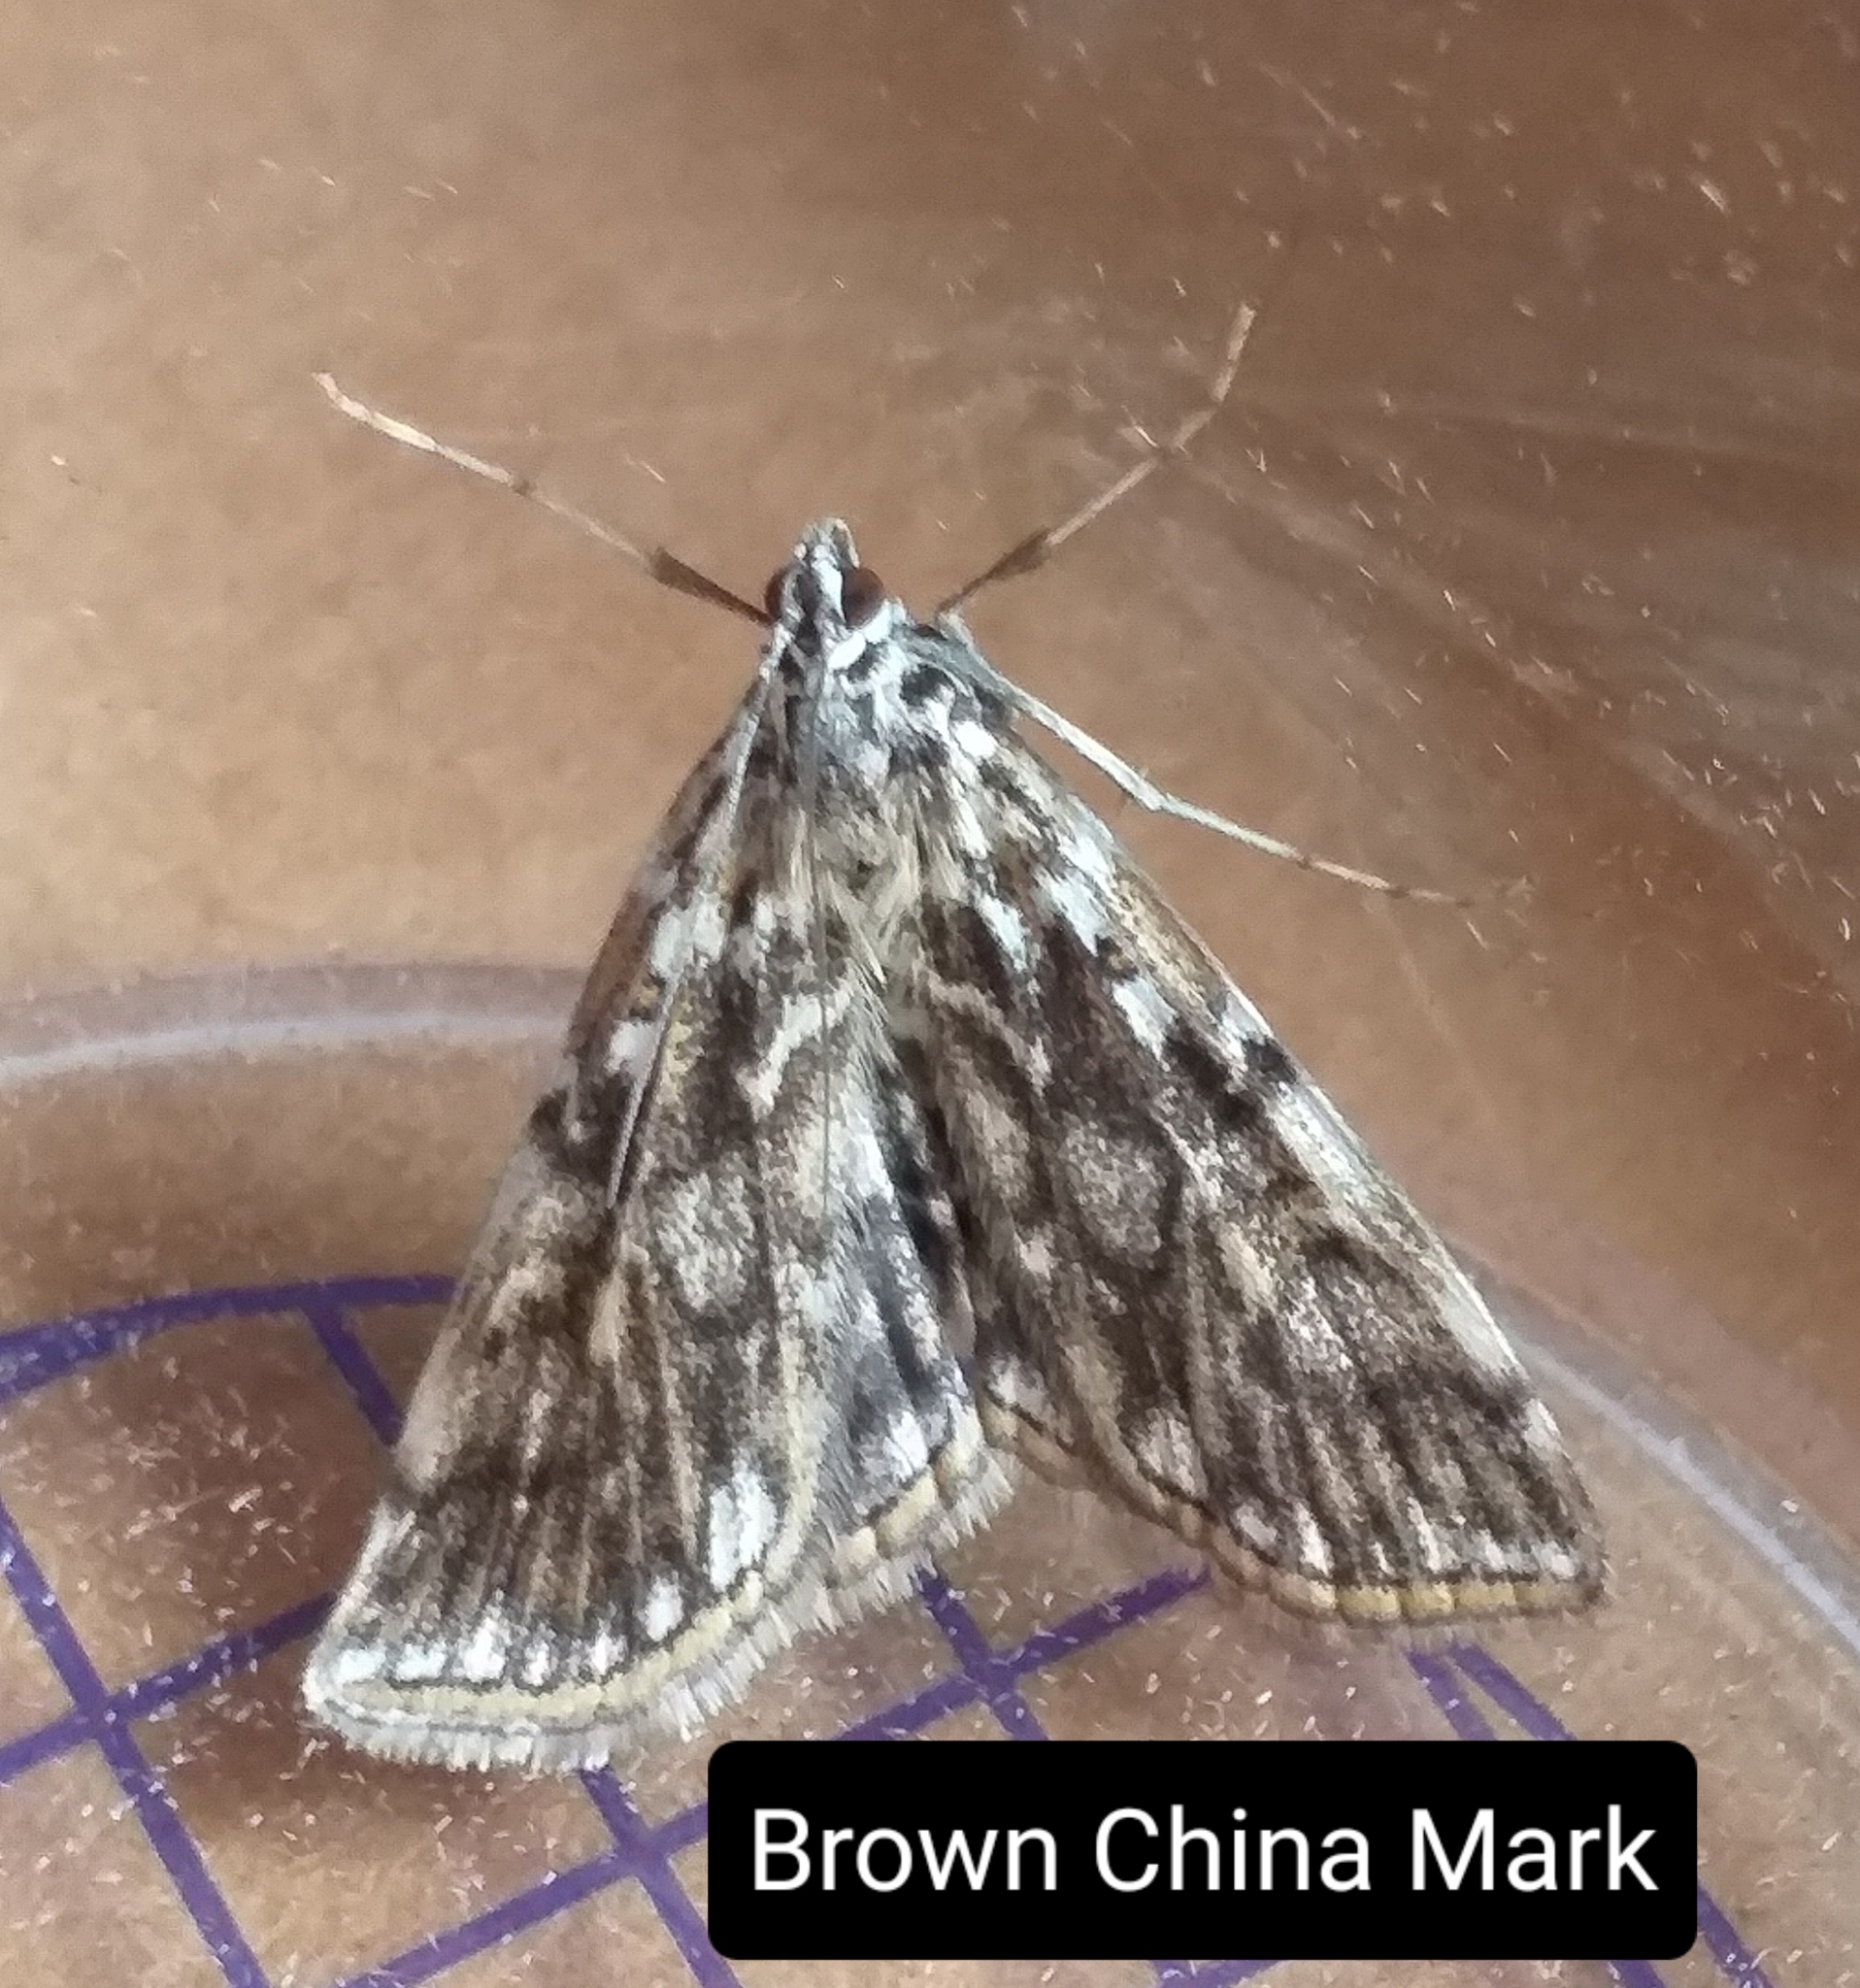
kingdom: Animalia
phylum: Arthropoda
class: Insecta
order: Lepidoptera
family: Crambidae
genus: Elophila
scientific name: Elophila nymphaeata
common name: Brown china-mark
